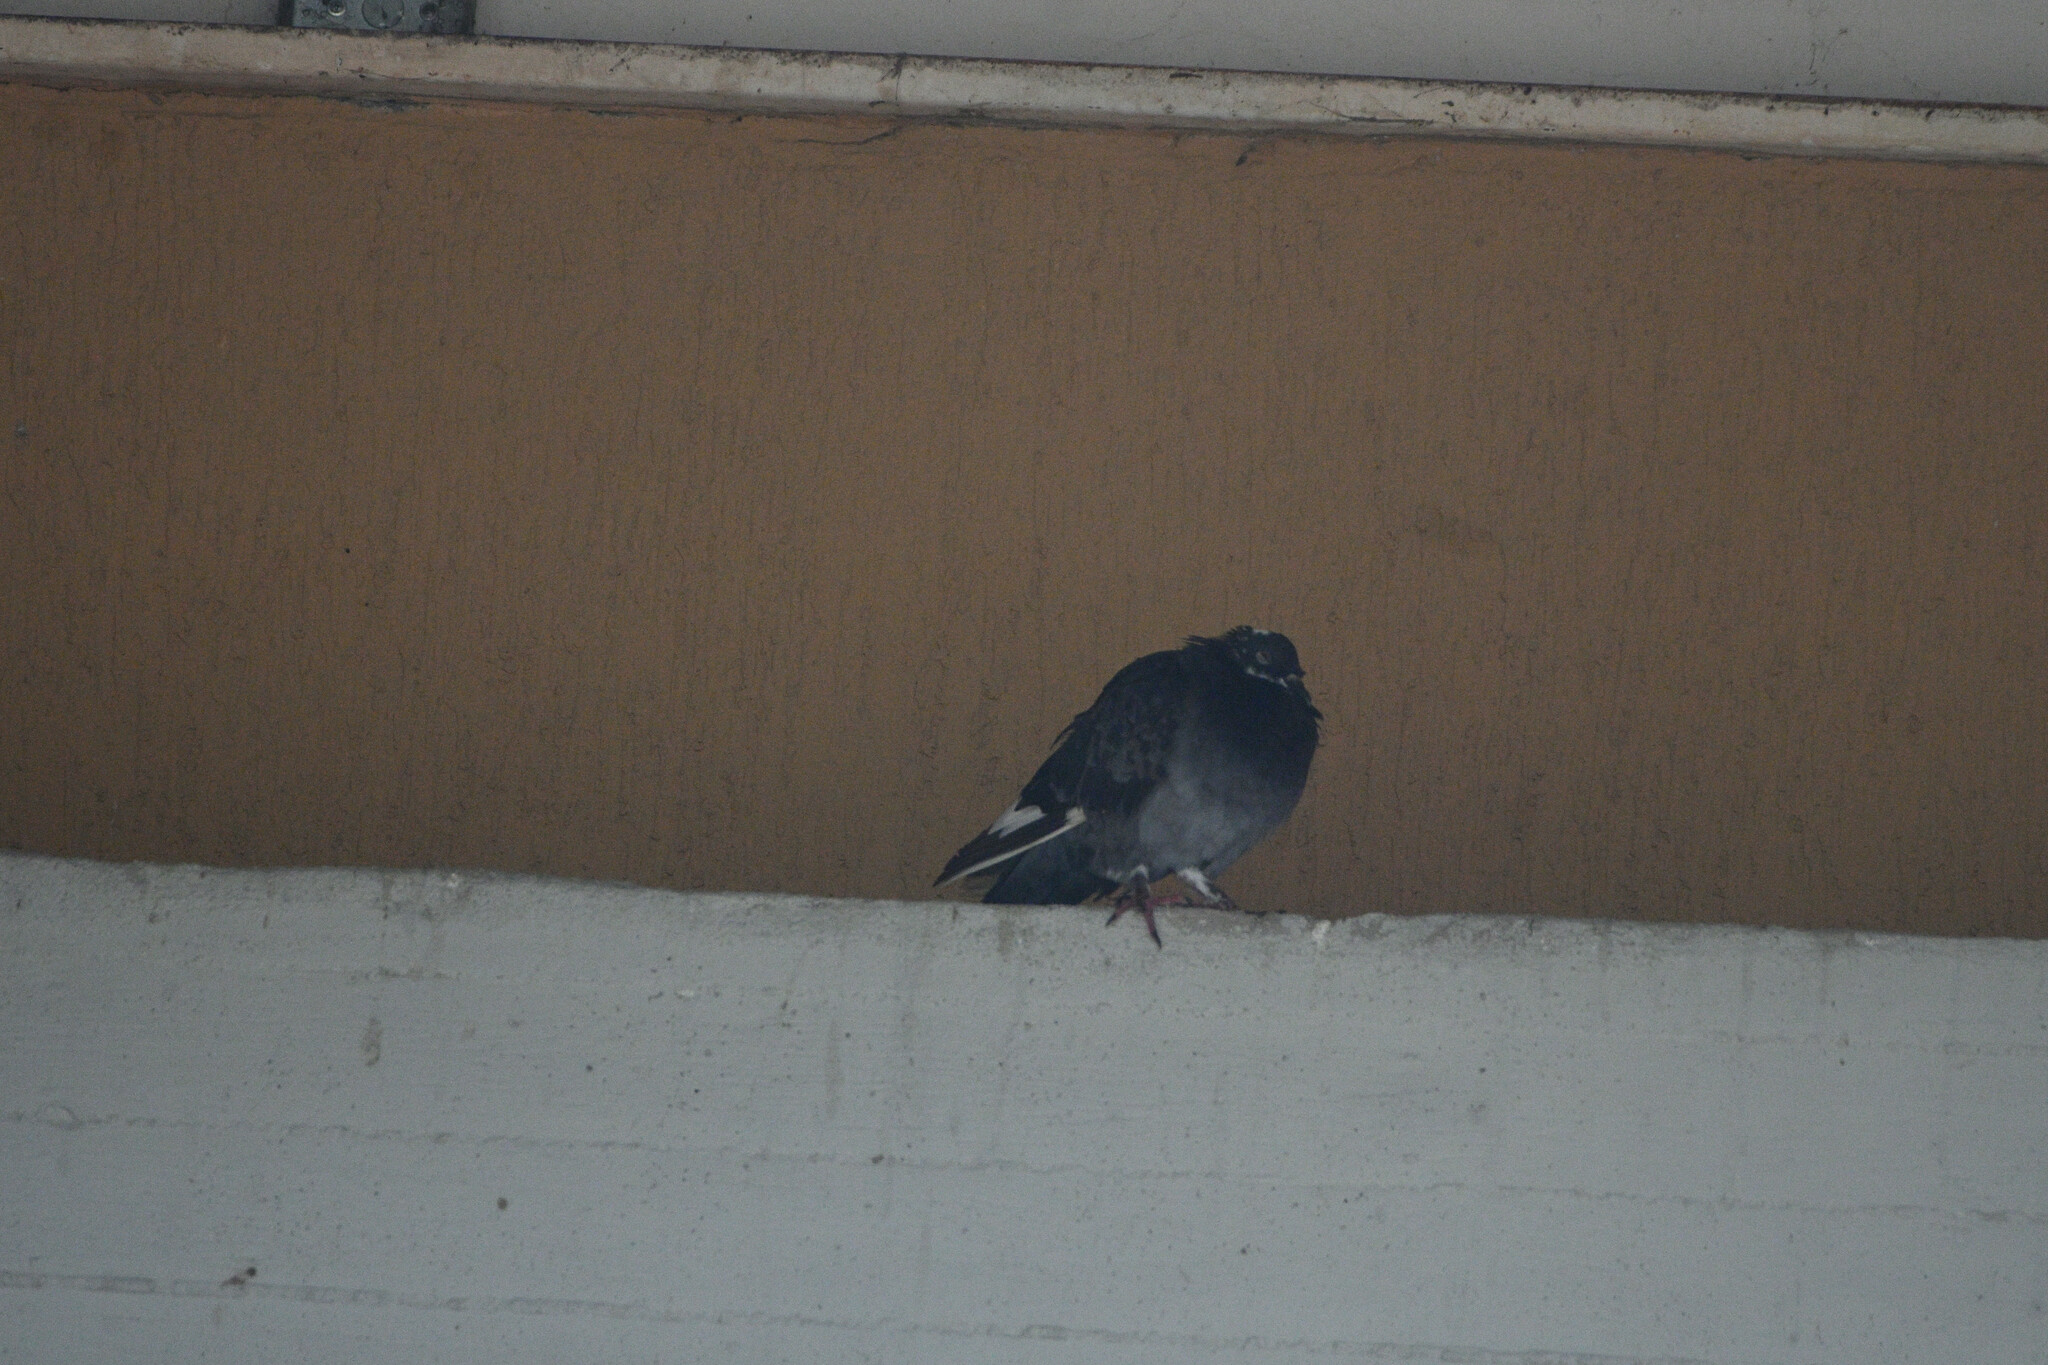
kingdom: Animalia
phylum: Chordata
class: Aves
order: Columbiformes
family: Columbidae
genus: Columba
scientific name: Columba livia
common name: Rock pigeon
